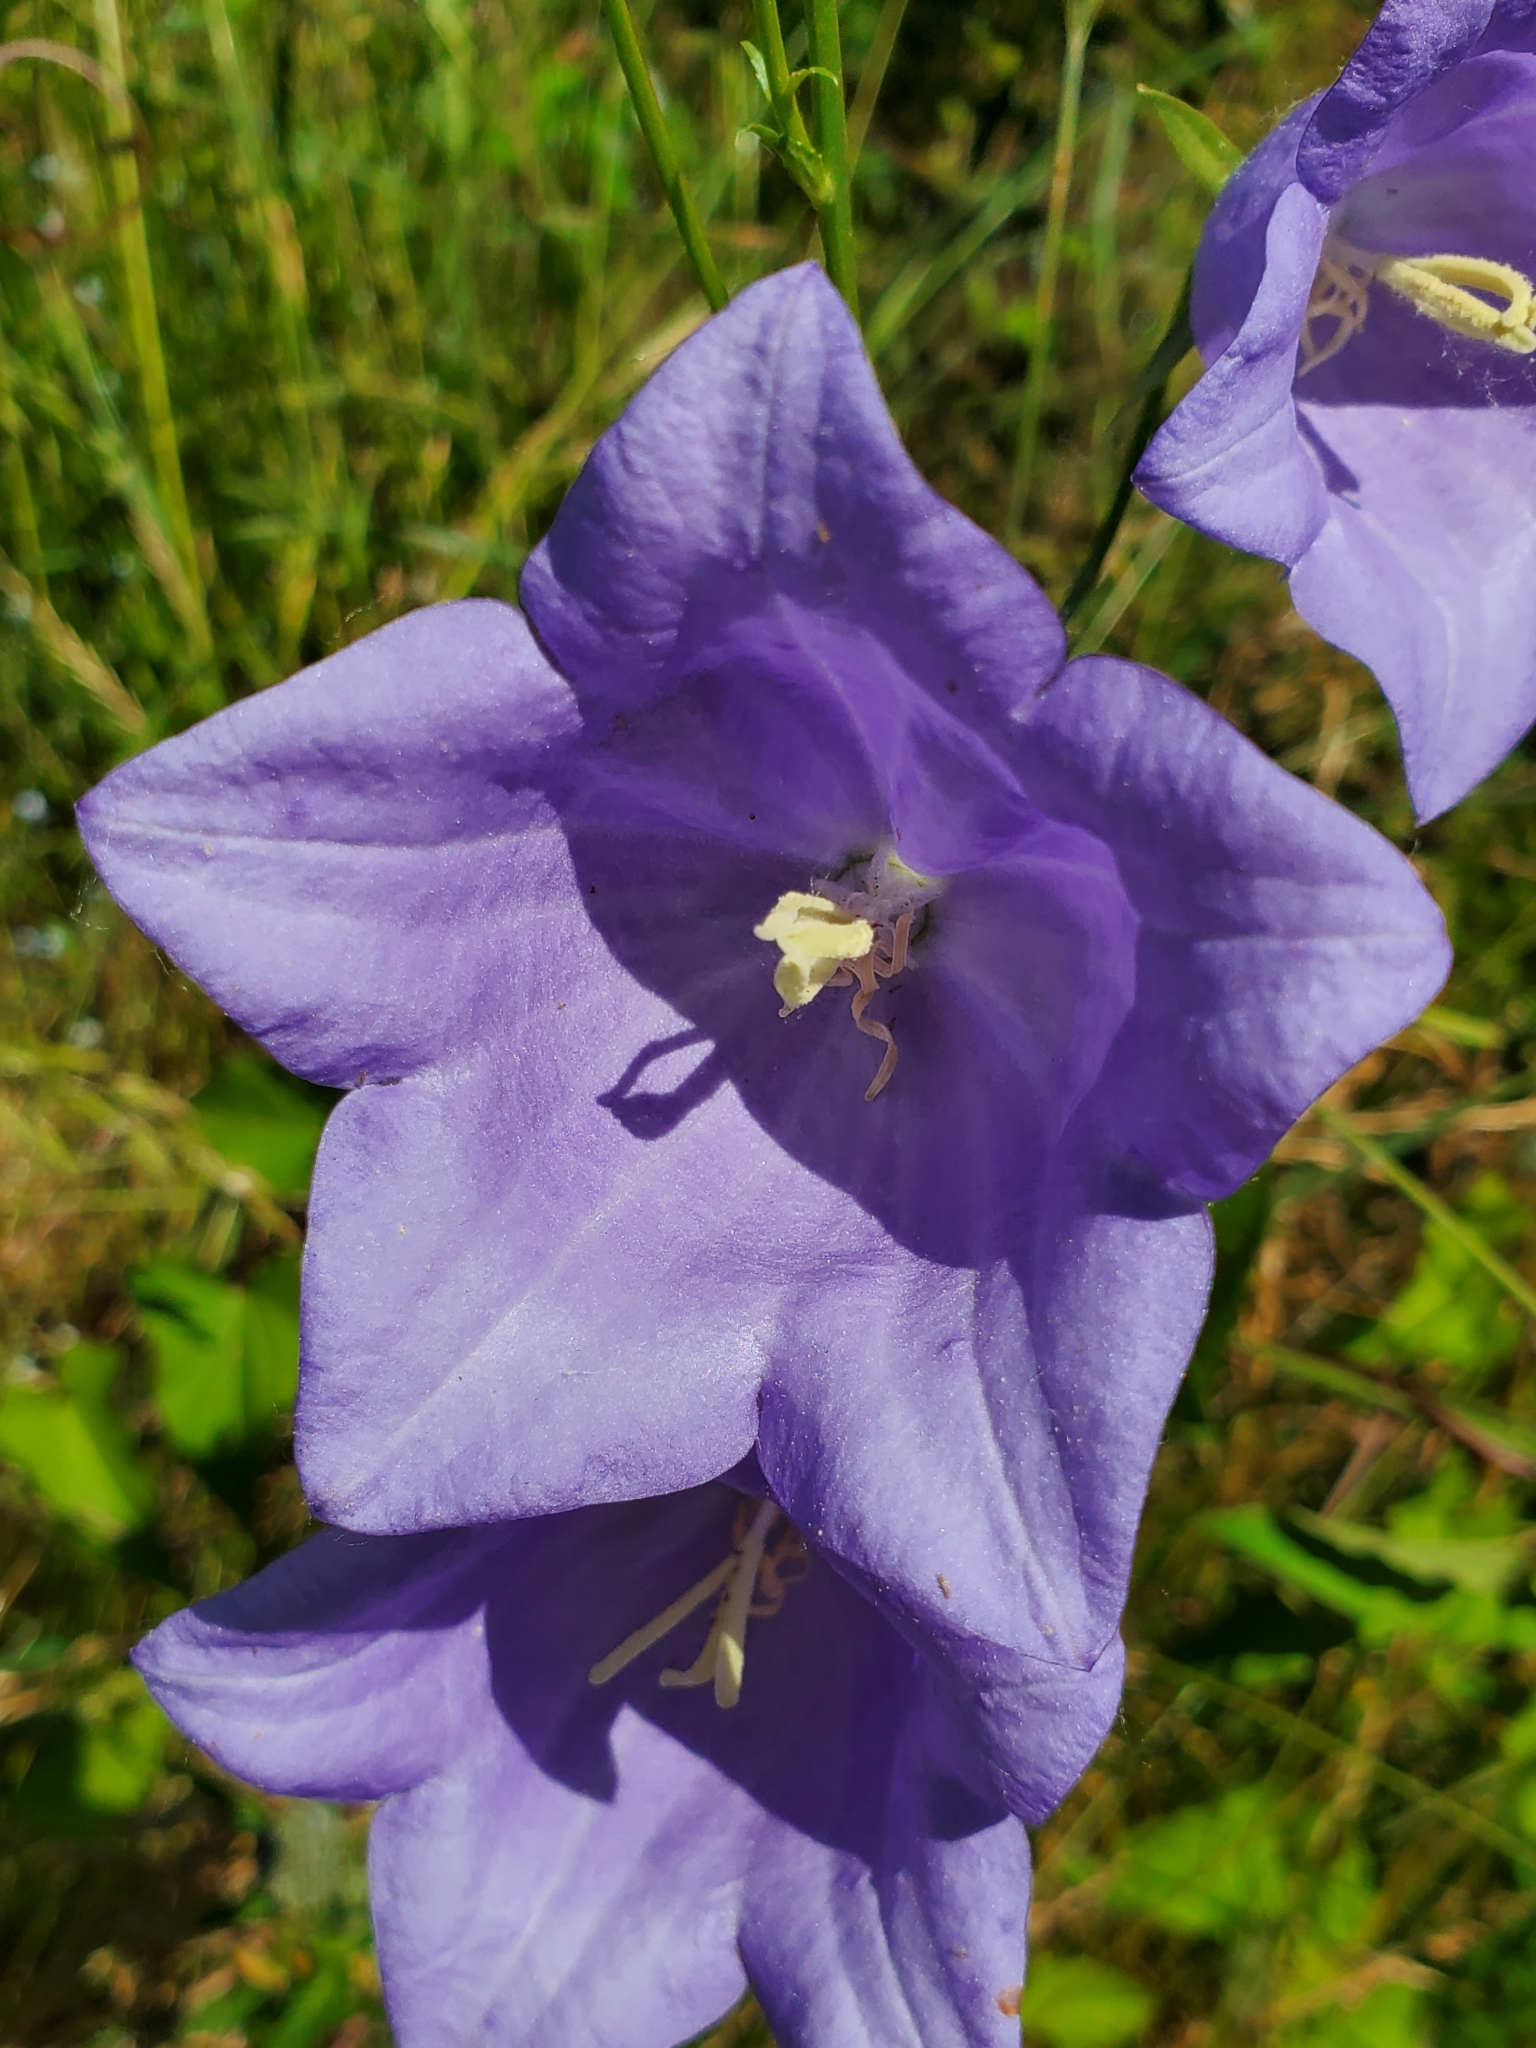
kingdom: Plantae
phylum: Tracheophyta
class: Magnoliopsida
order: Asterales
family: Campanulaceae
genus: Campanula
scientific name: Campanula persicifolia
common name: Peach-leaved bellflower
